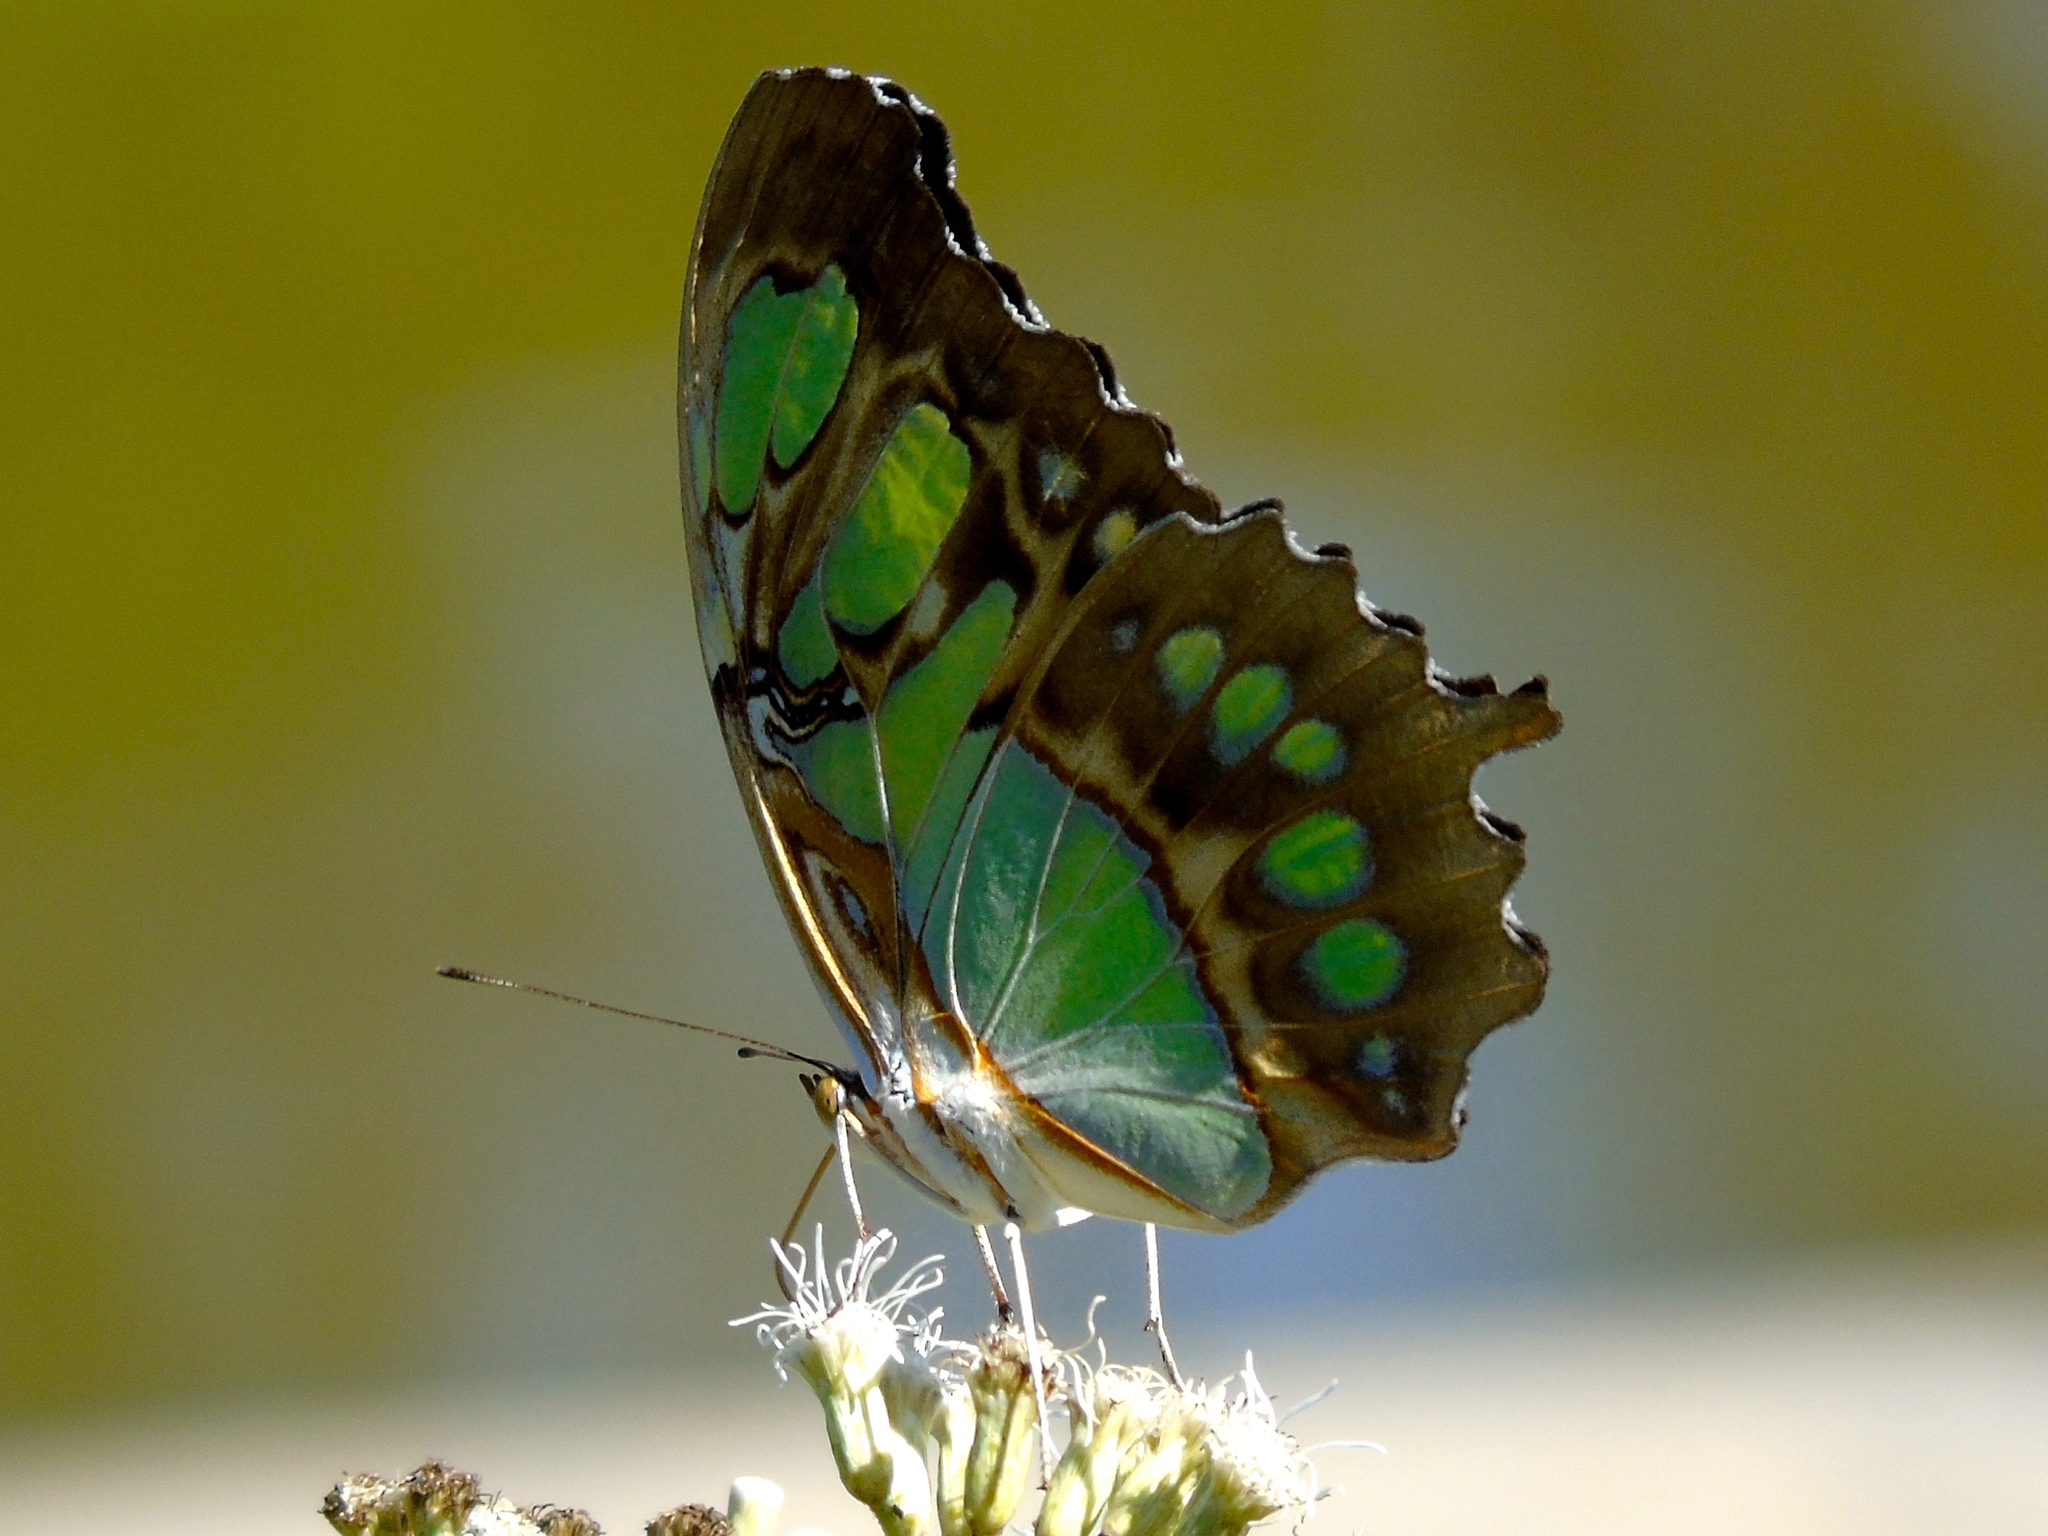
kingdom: Animalia
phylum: Arthropoda
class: Insecta
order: Lepidoptera
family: Nymphalidae
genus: Siproeta
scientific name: Siproeta stelenes
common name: Malachite
